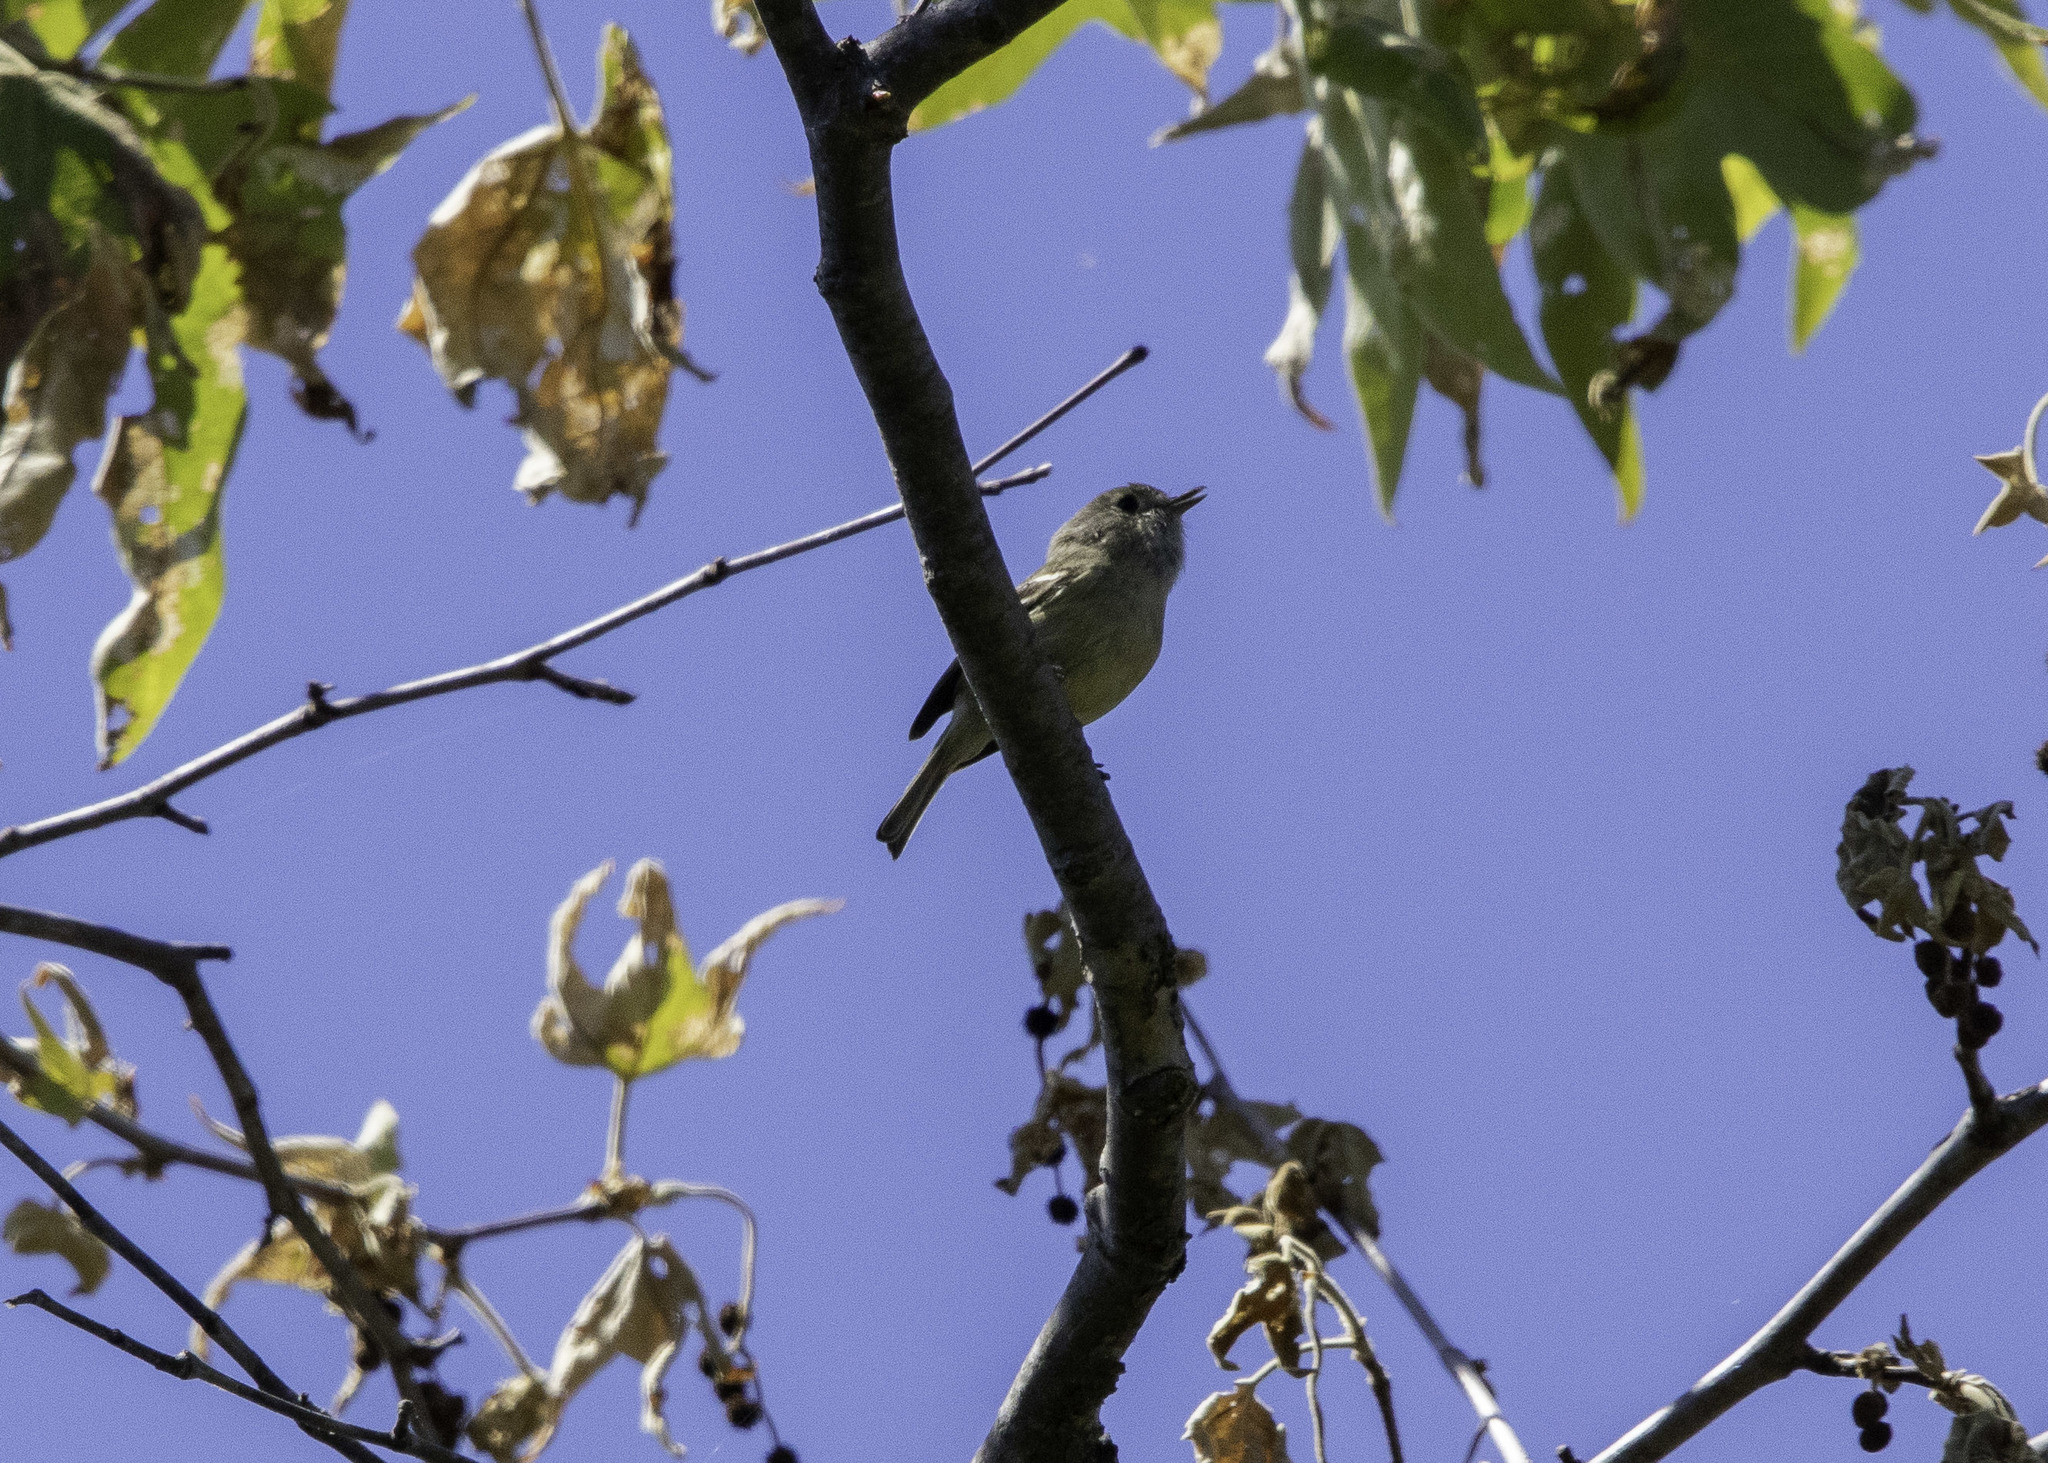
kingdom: Animalia
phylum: Chordata
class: Aves
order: Passeriformes
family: Vireonidae
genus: Vireo
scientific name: Vireo huttoni
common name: Hutton's vireo
